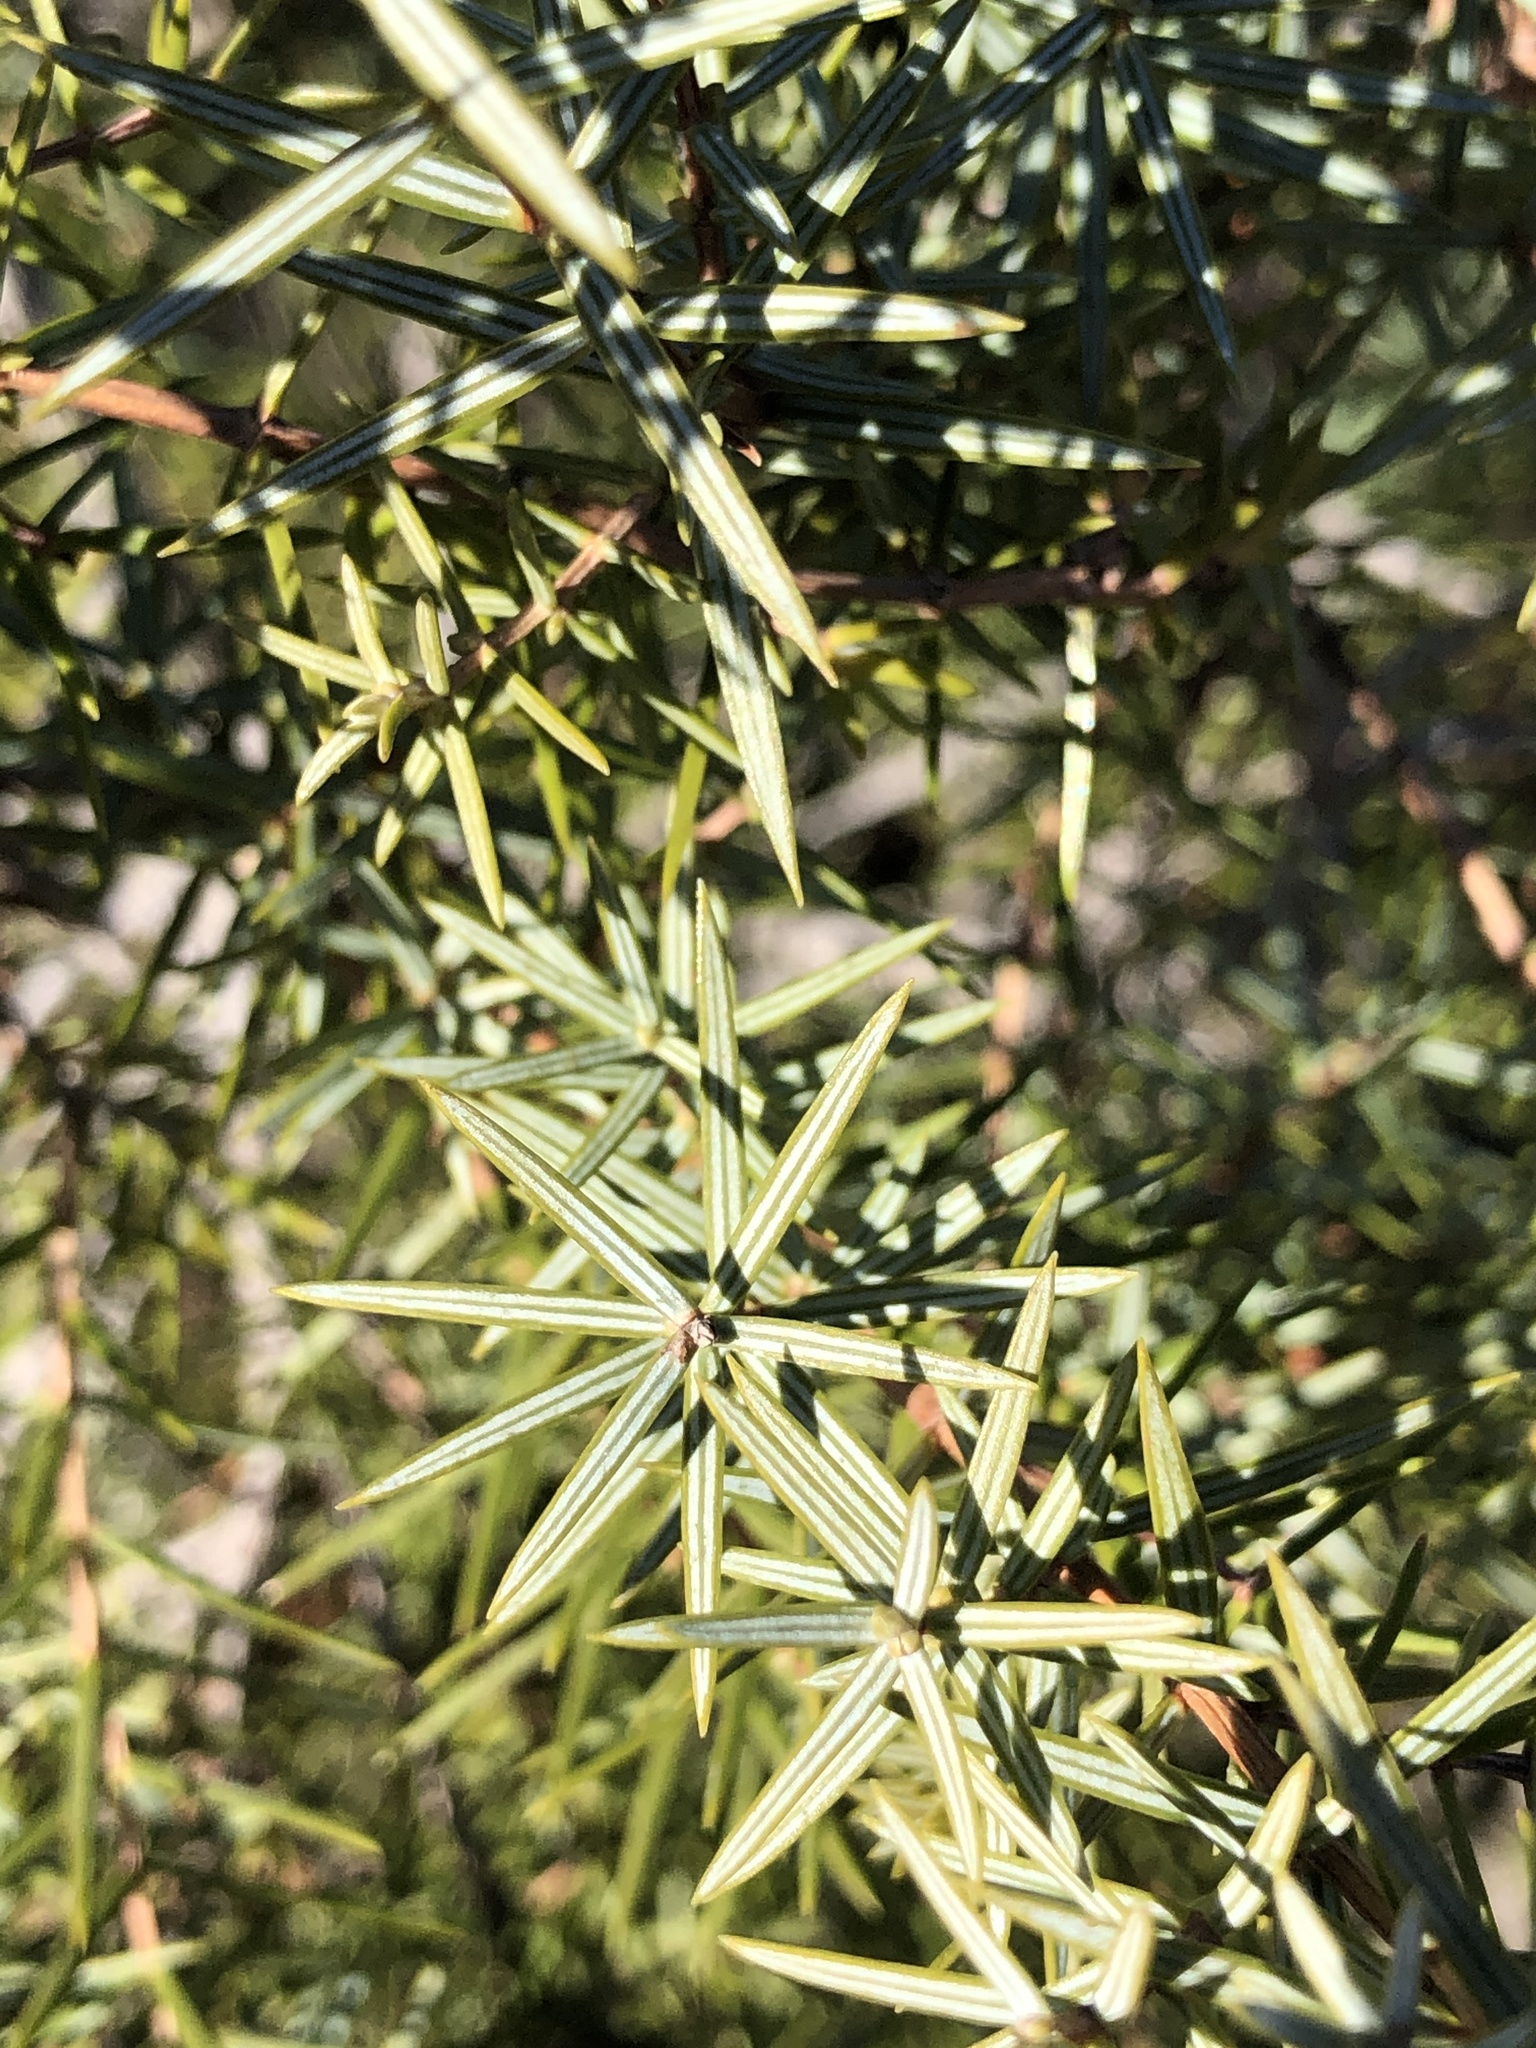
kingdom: Plantae
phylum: Tracheophyta
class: Pinopsida
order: Pinales
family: Cupressaceae
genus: Juniperus
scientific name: Juniperus oxycedrus
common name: Prickly juniper
